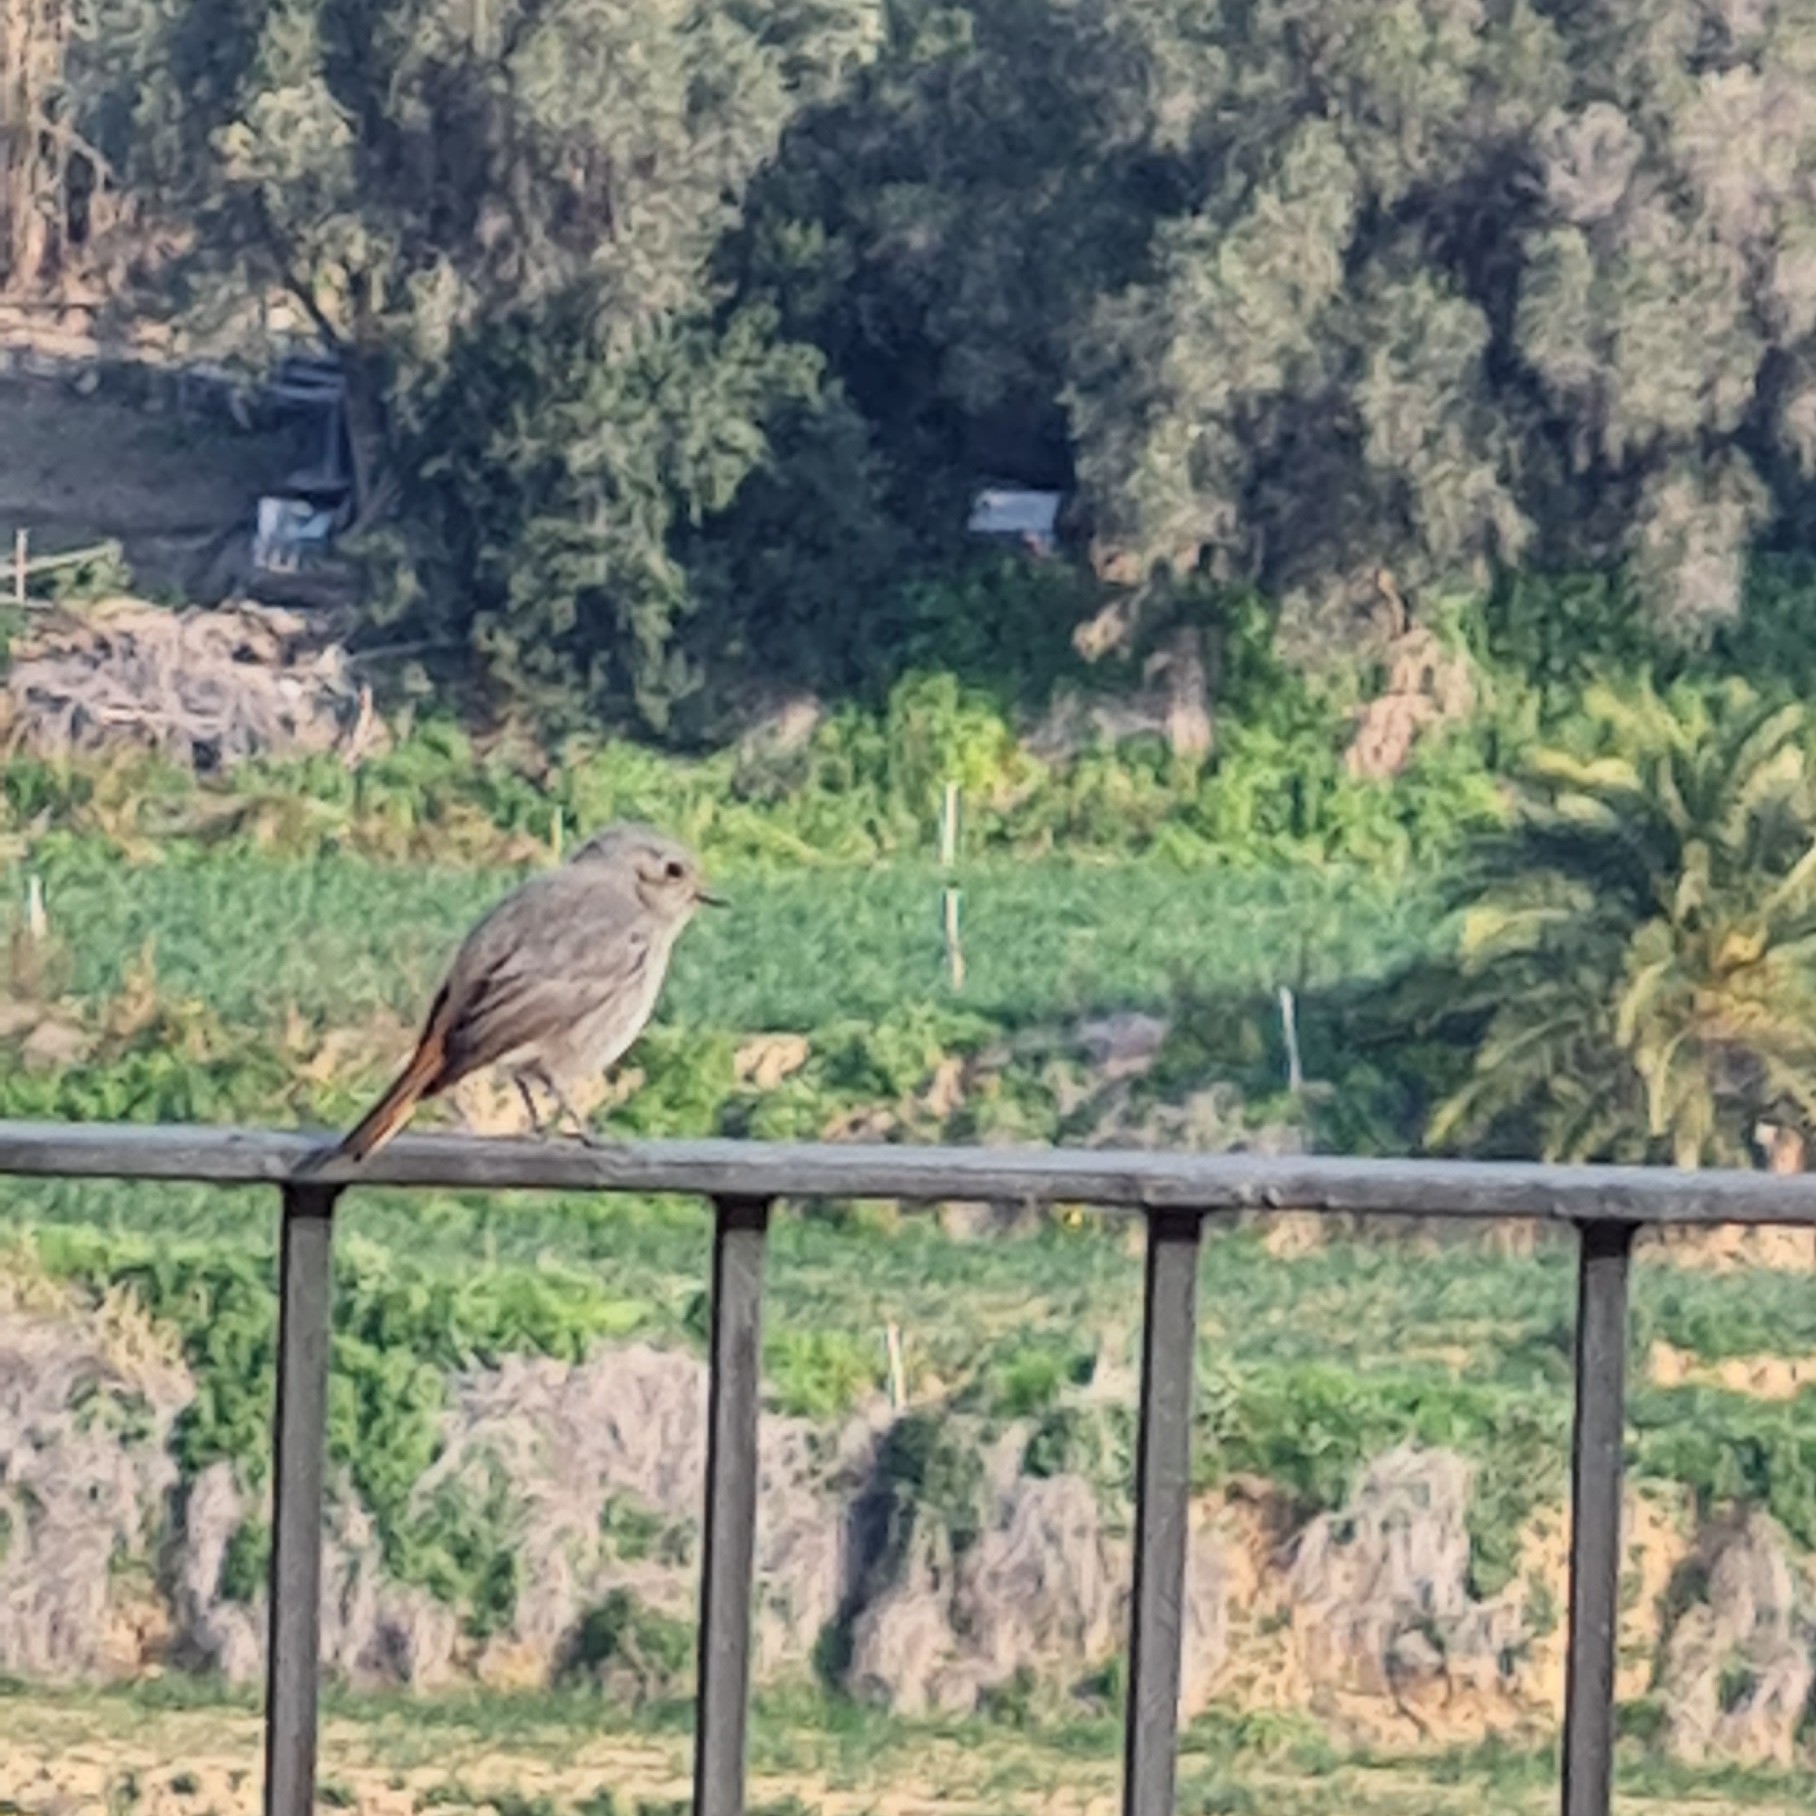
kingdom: Animalia
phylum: Chordata
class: Aves
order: Passeriformes
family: Muscicapidae
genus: Phoenicurus
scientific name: Phoenicurus ochruros
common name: Black redstart
